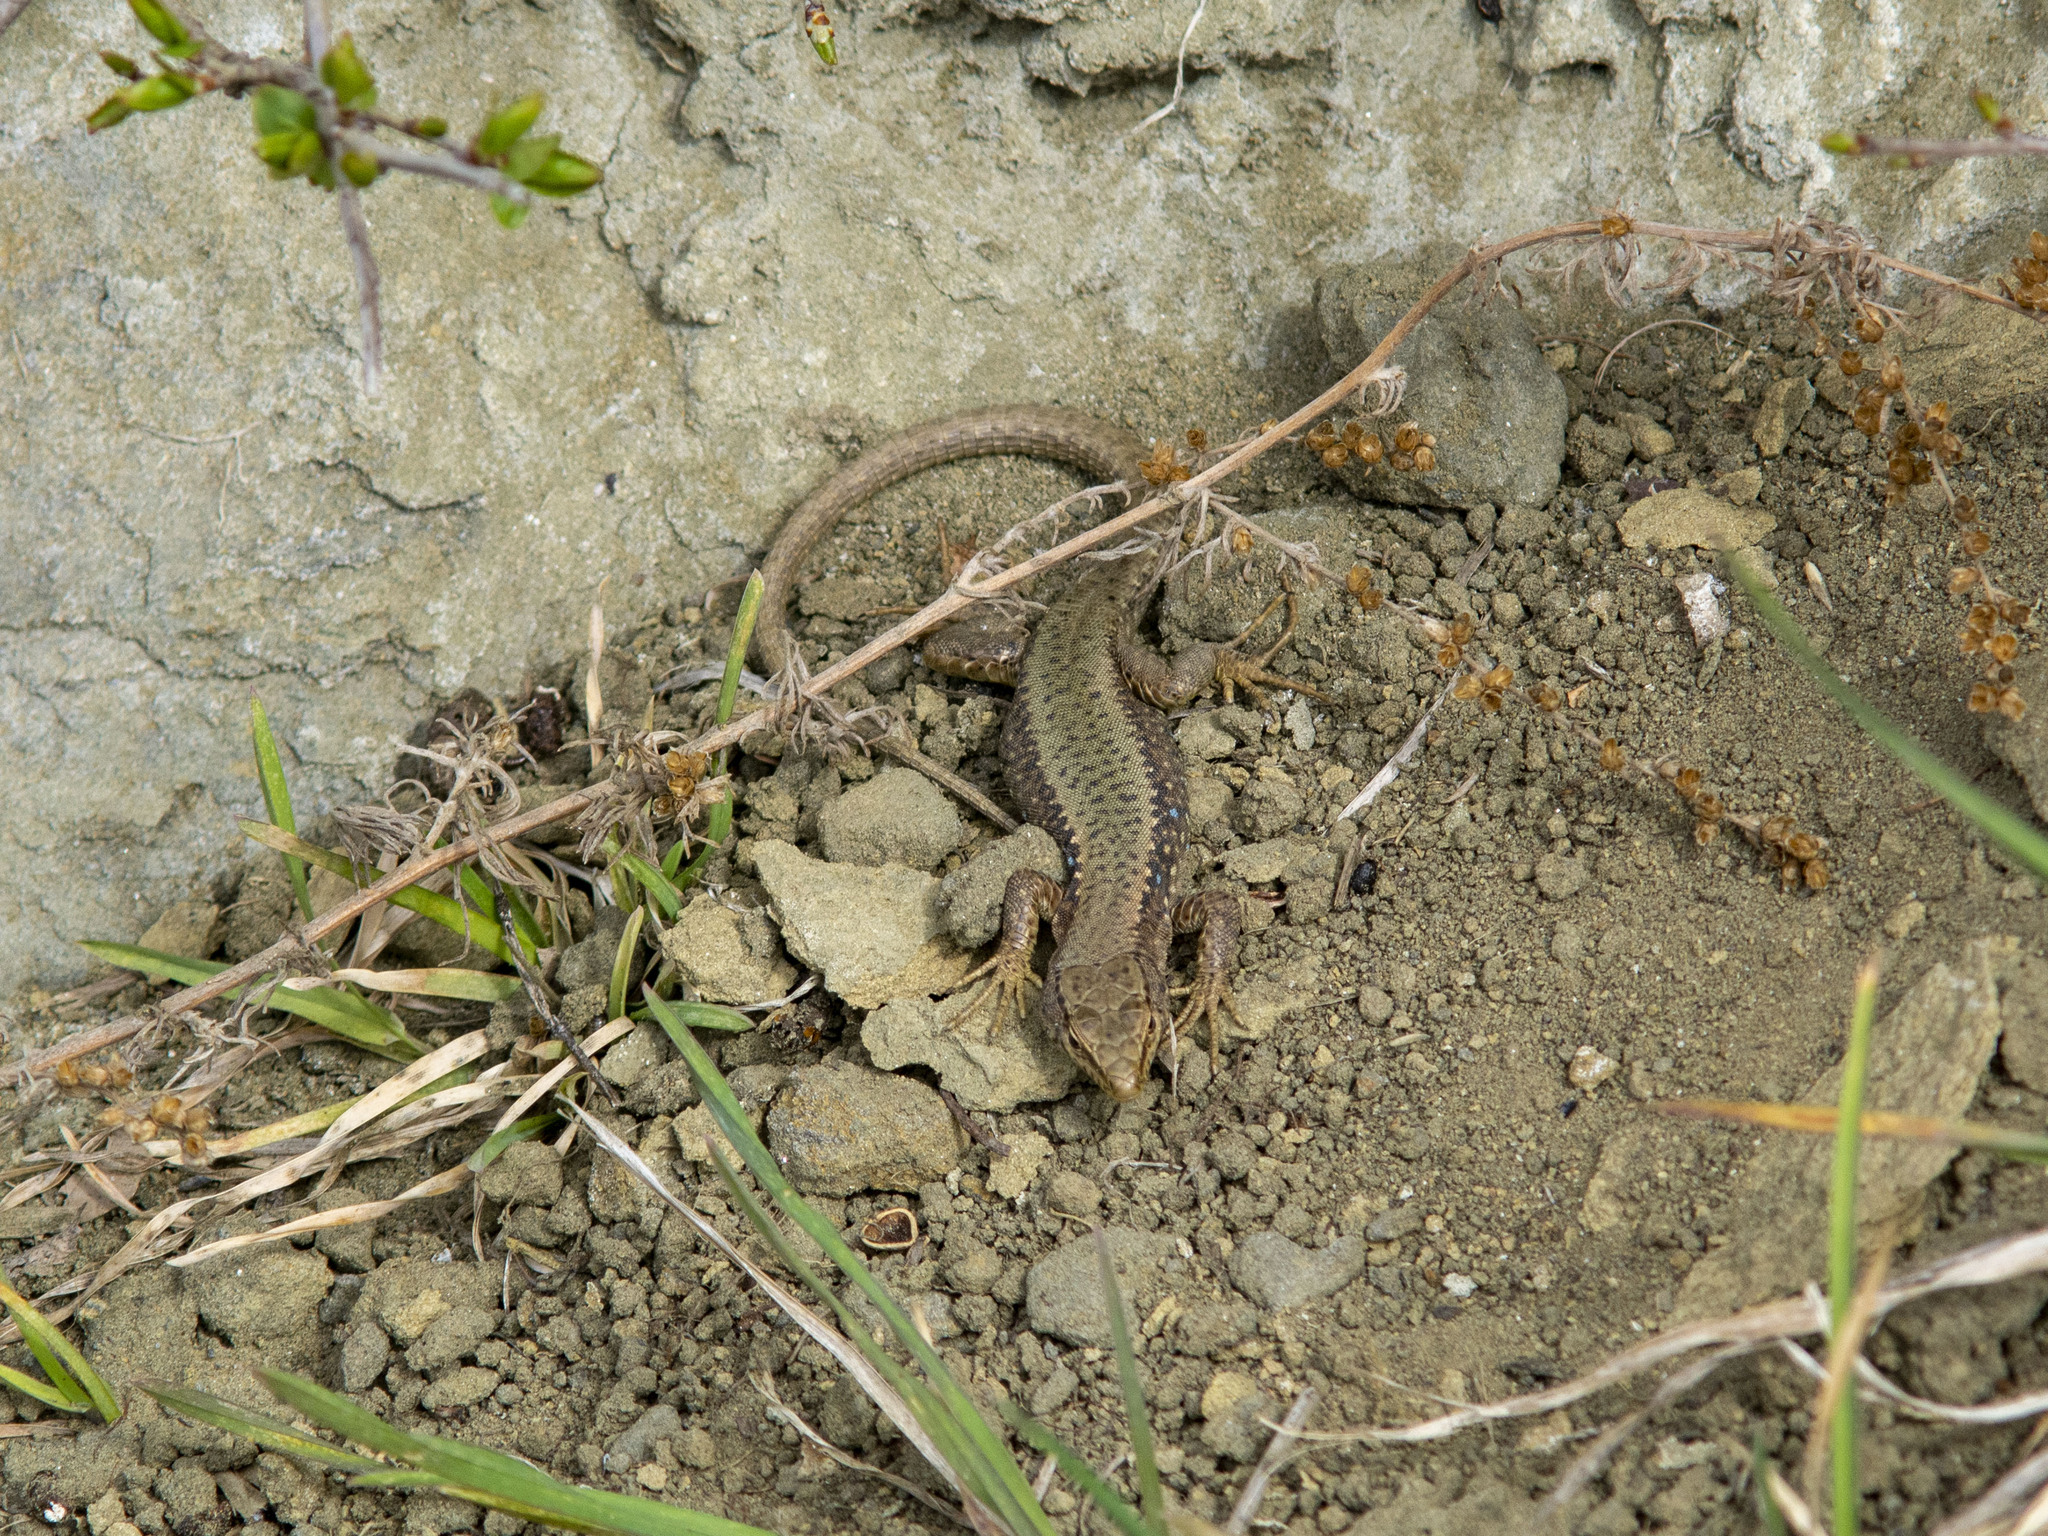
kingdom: Animalia
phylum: Chordata
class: Squamata
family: Lacertidae
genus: Darevskia
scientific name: Darevskia saxicola
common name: Rock lizard
